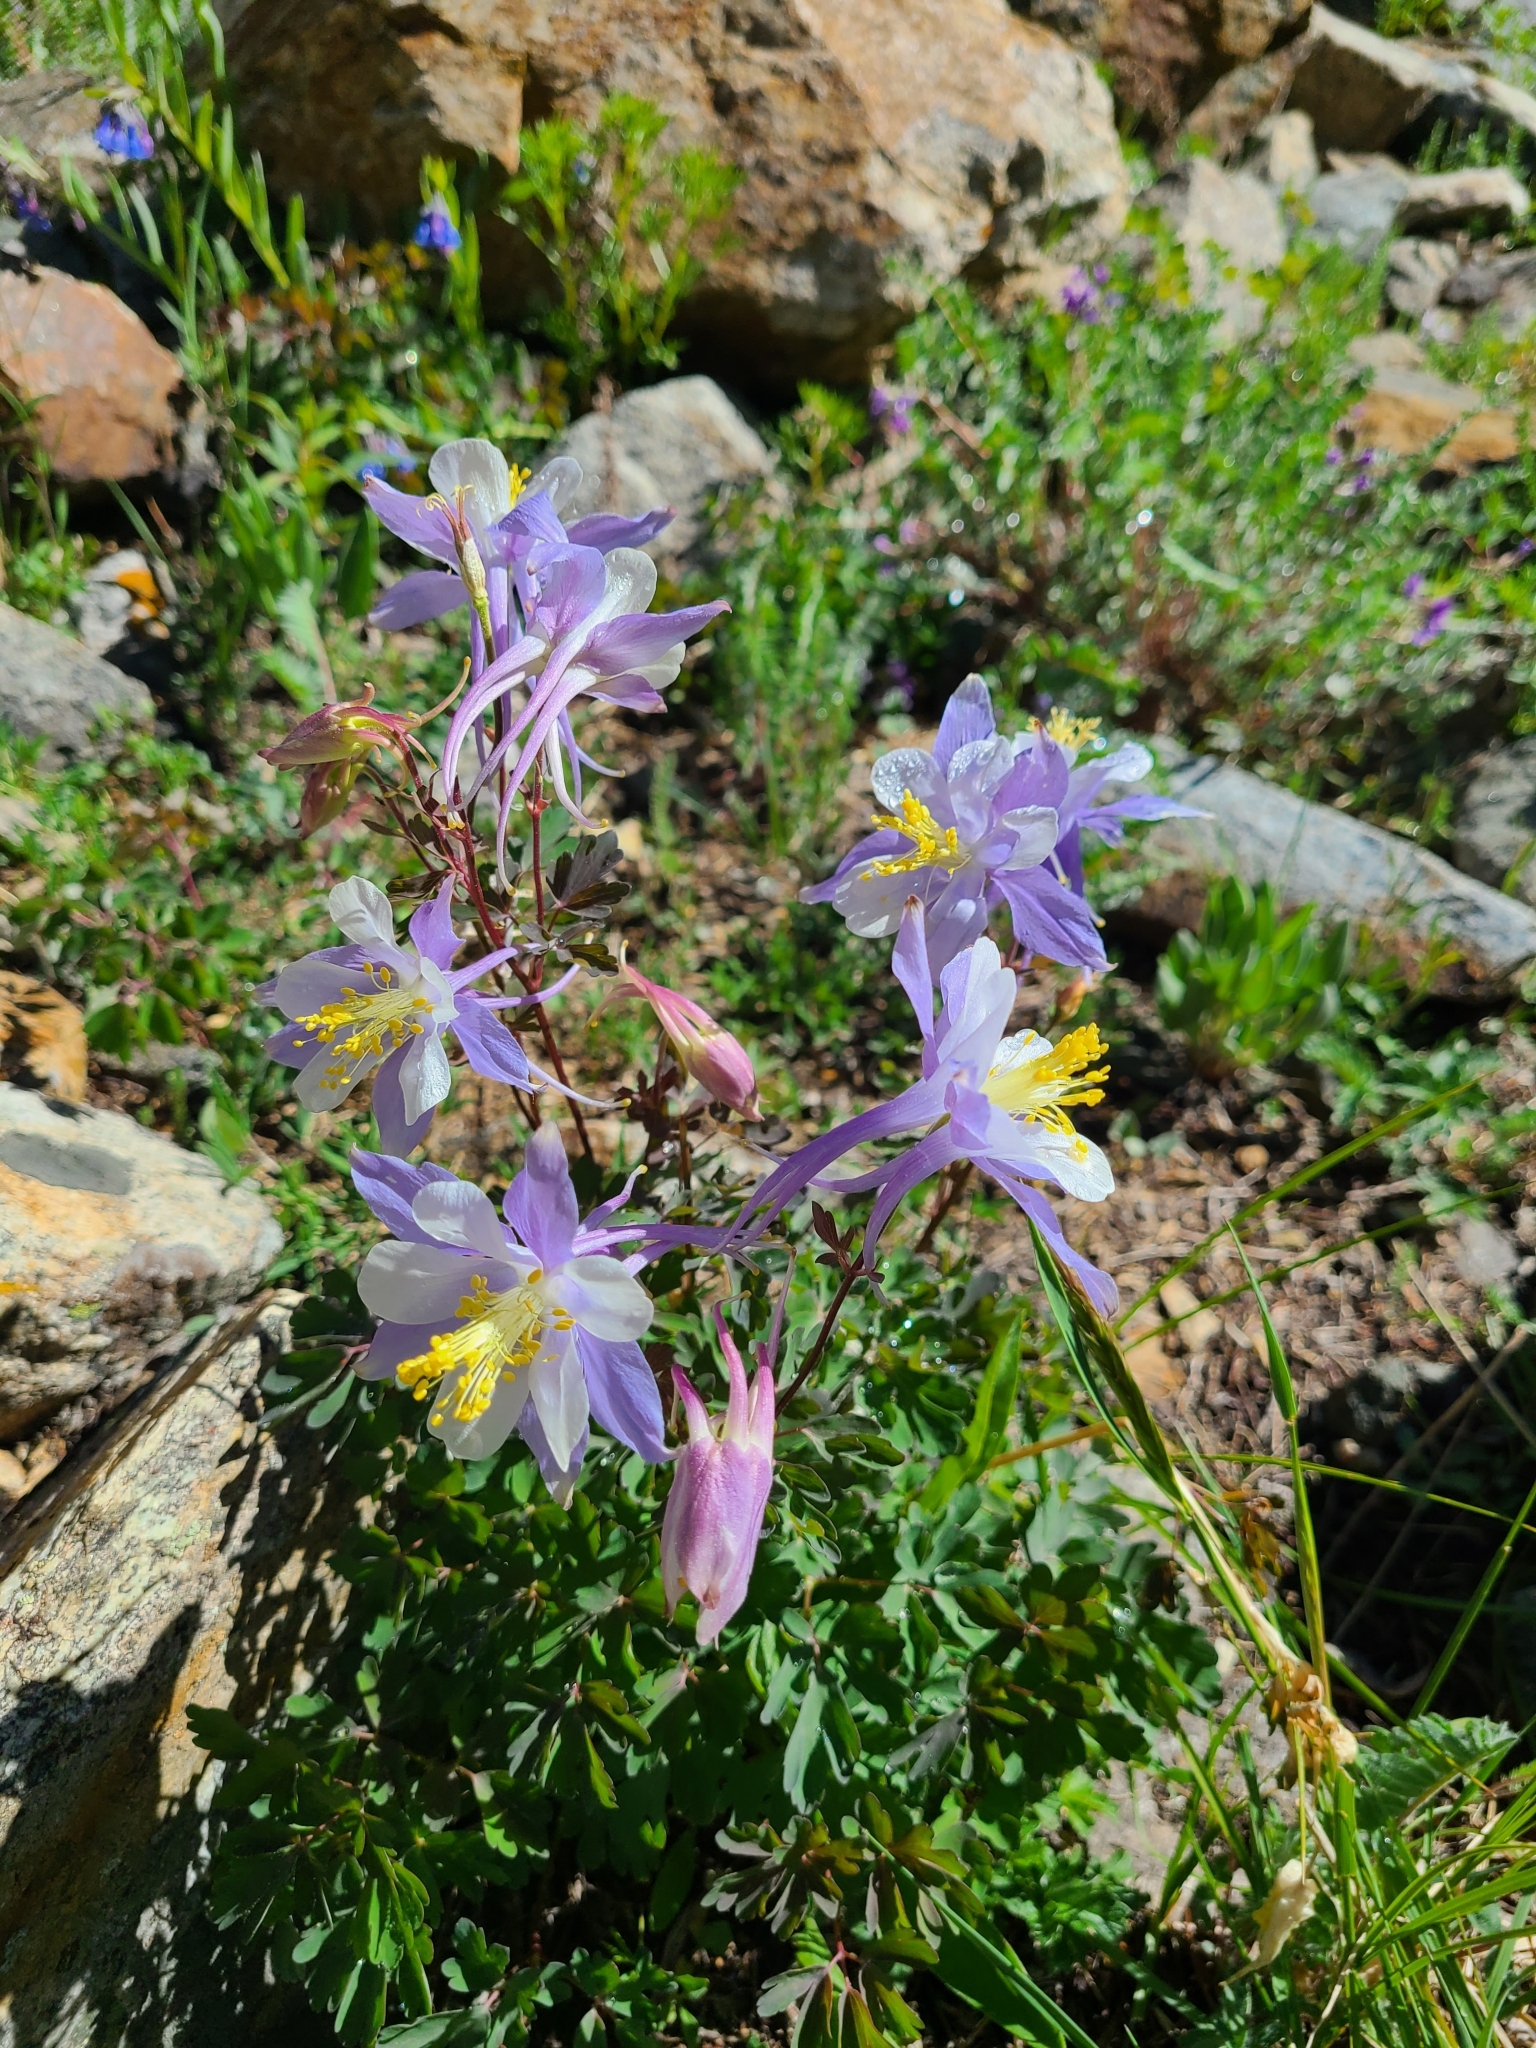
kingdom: Plantae
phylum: Tracheophyta
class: Magnoliopsida
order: Ranunculales
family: Ranunculaceae
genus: Aquilegia
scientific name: Aquilegia coerulea
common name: Rocky mountain columbine
